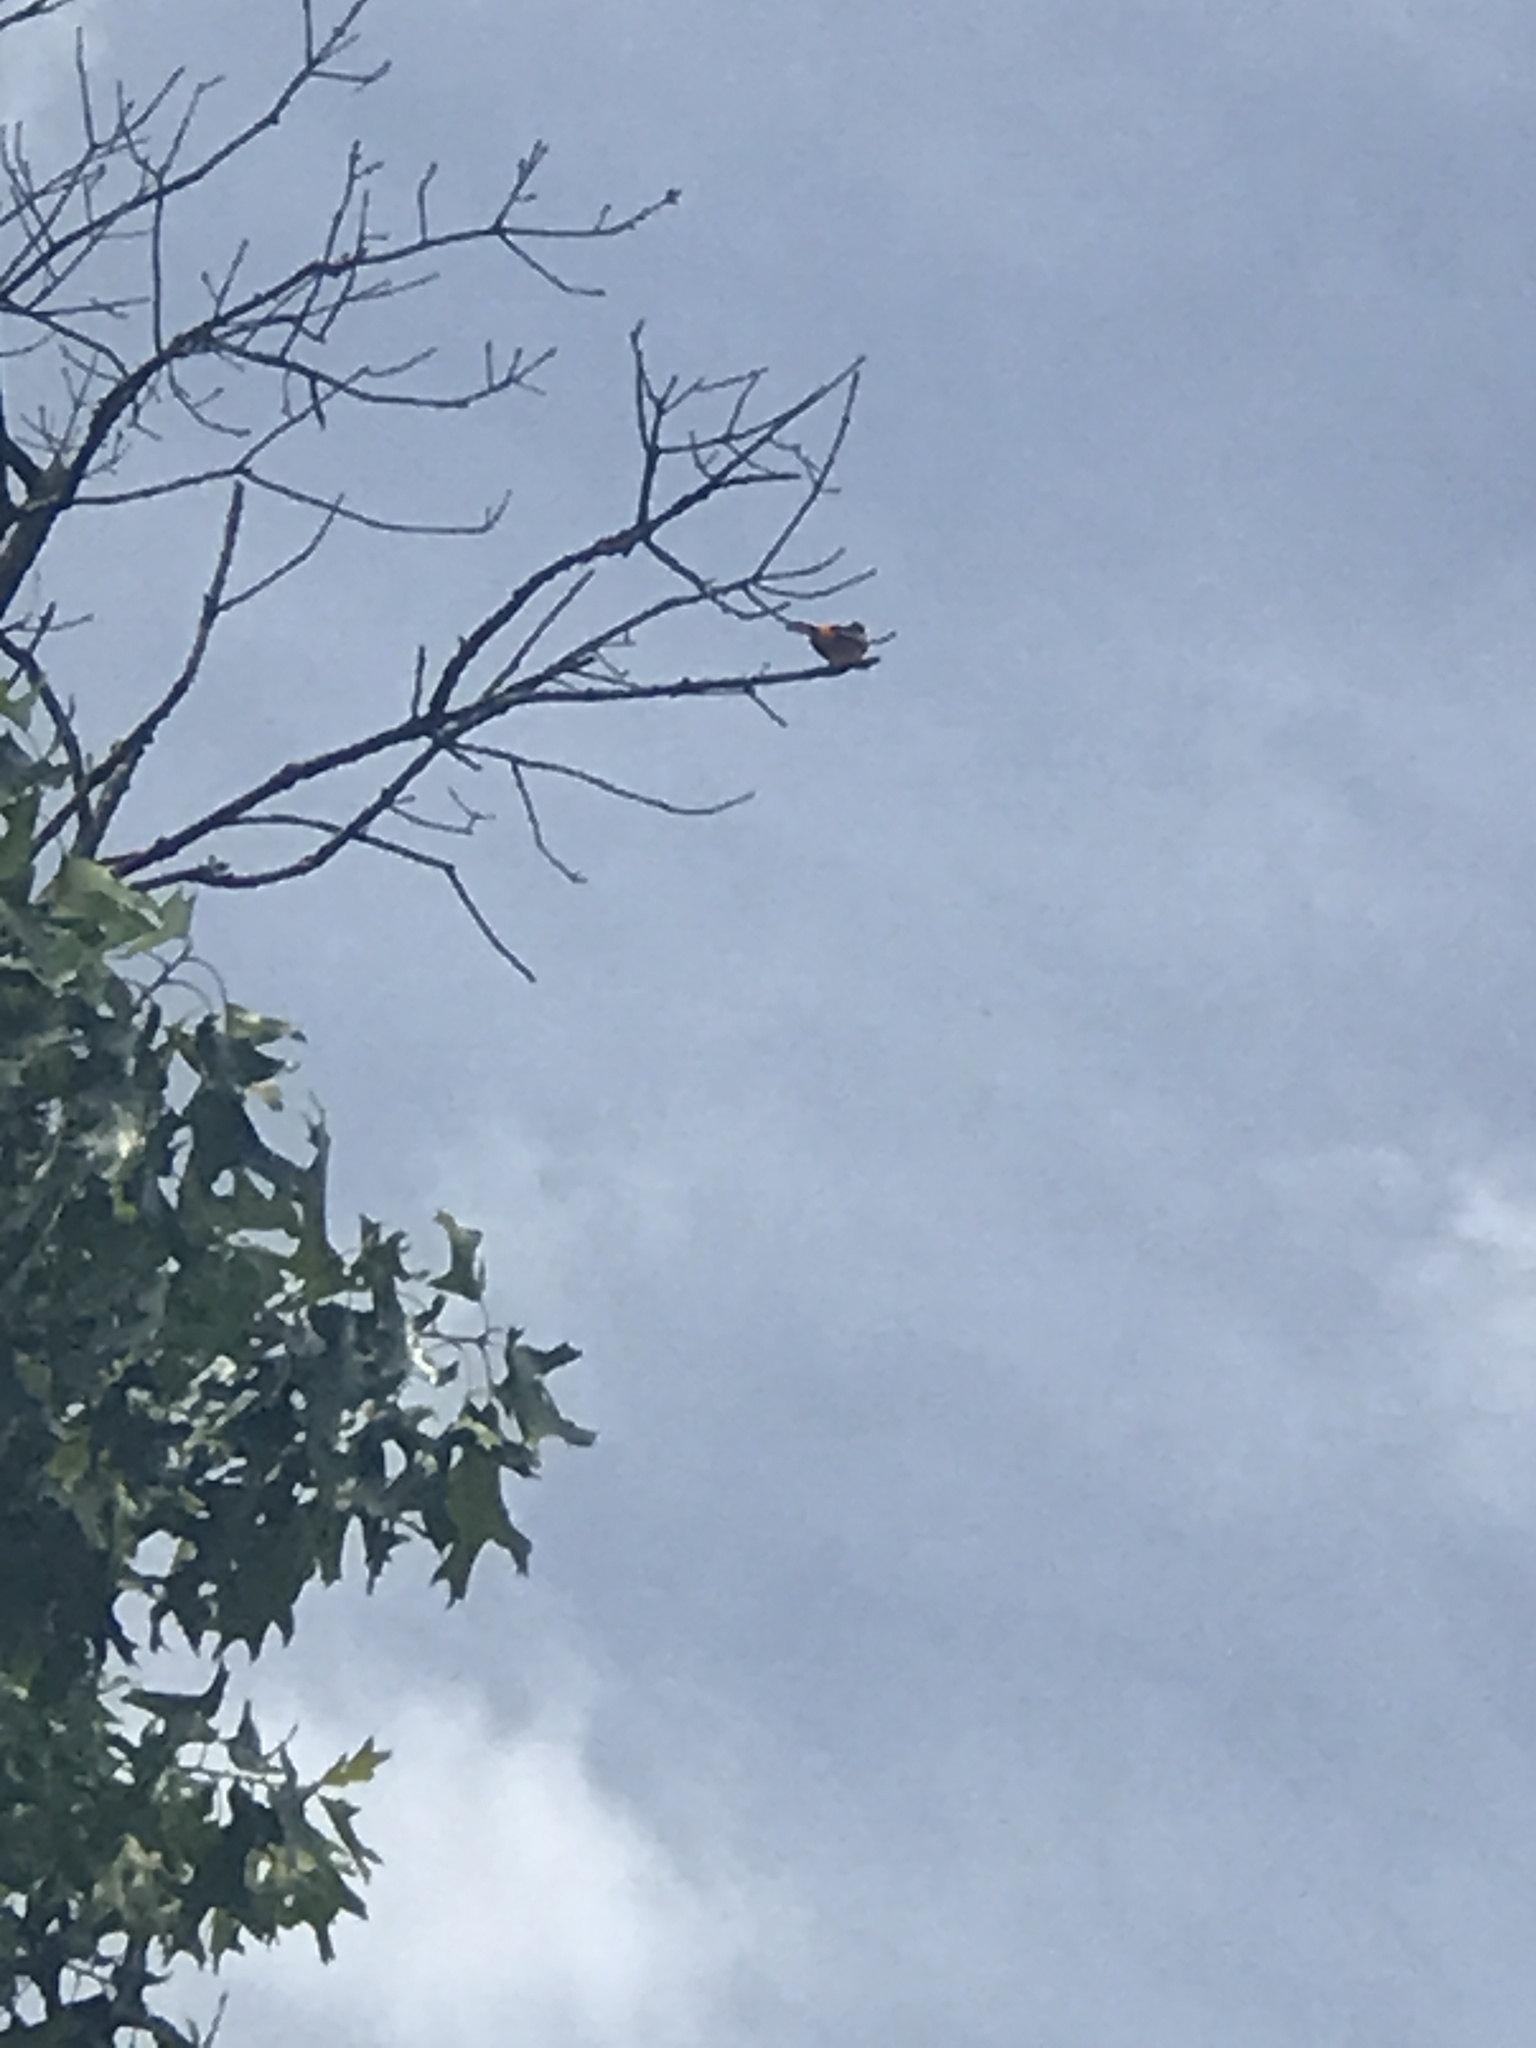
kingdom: Animalia
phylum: Chordata
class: Aves
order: Passeriformes
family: Icteridae
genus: Icterus
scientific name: Icterus galbula
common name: Baltimore oriole
